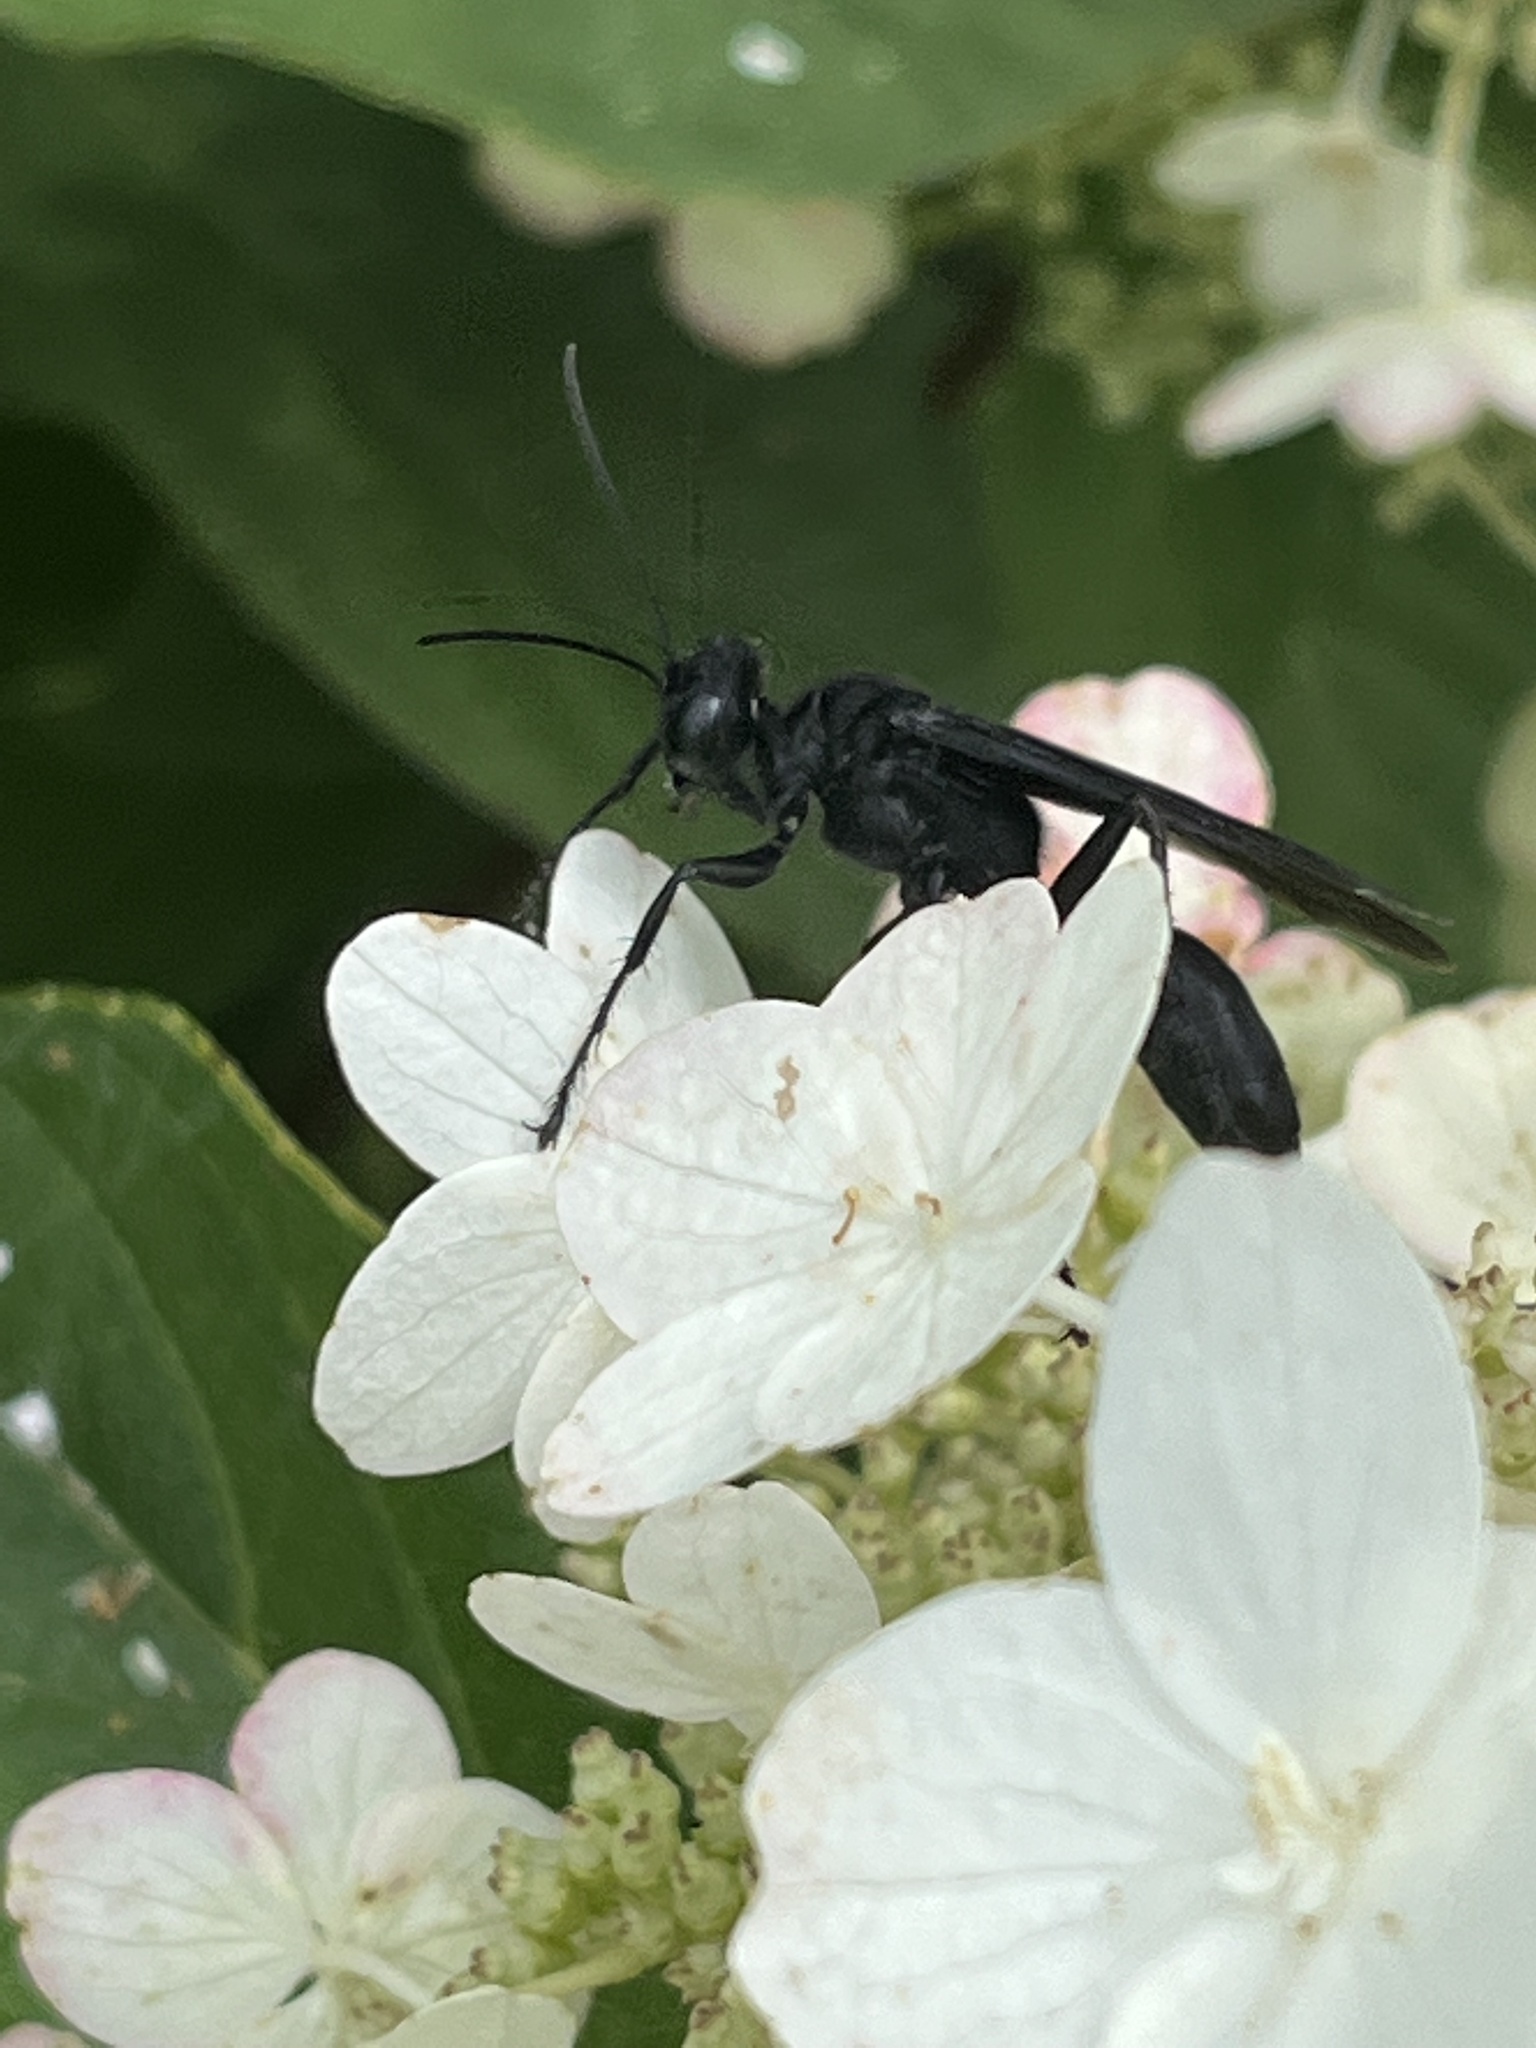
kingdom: Animalia
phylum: Arthropoda
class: Insecta
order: Hymenoptera
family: Sphecidae
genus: Sphex
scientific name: Sphex pensylvanicus
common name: Great black digger wasp
